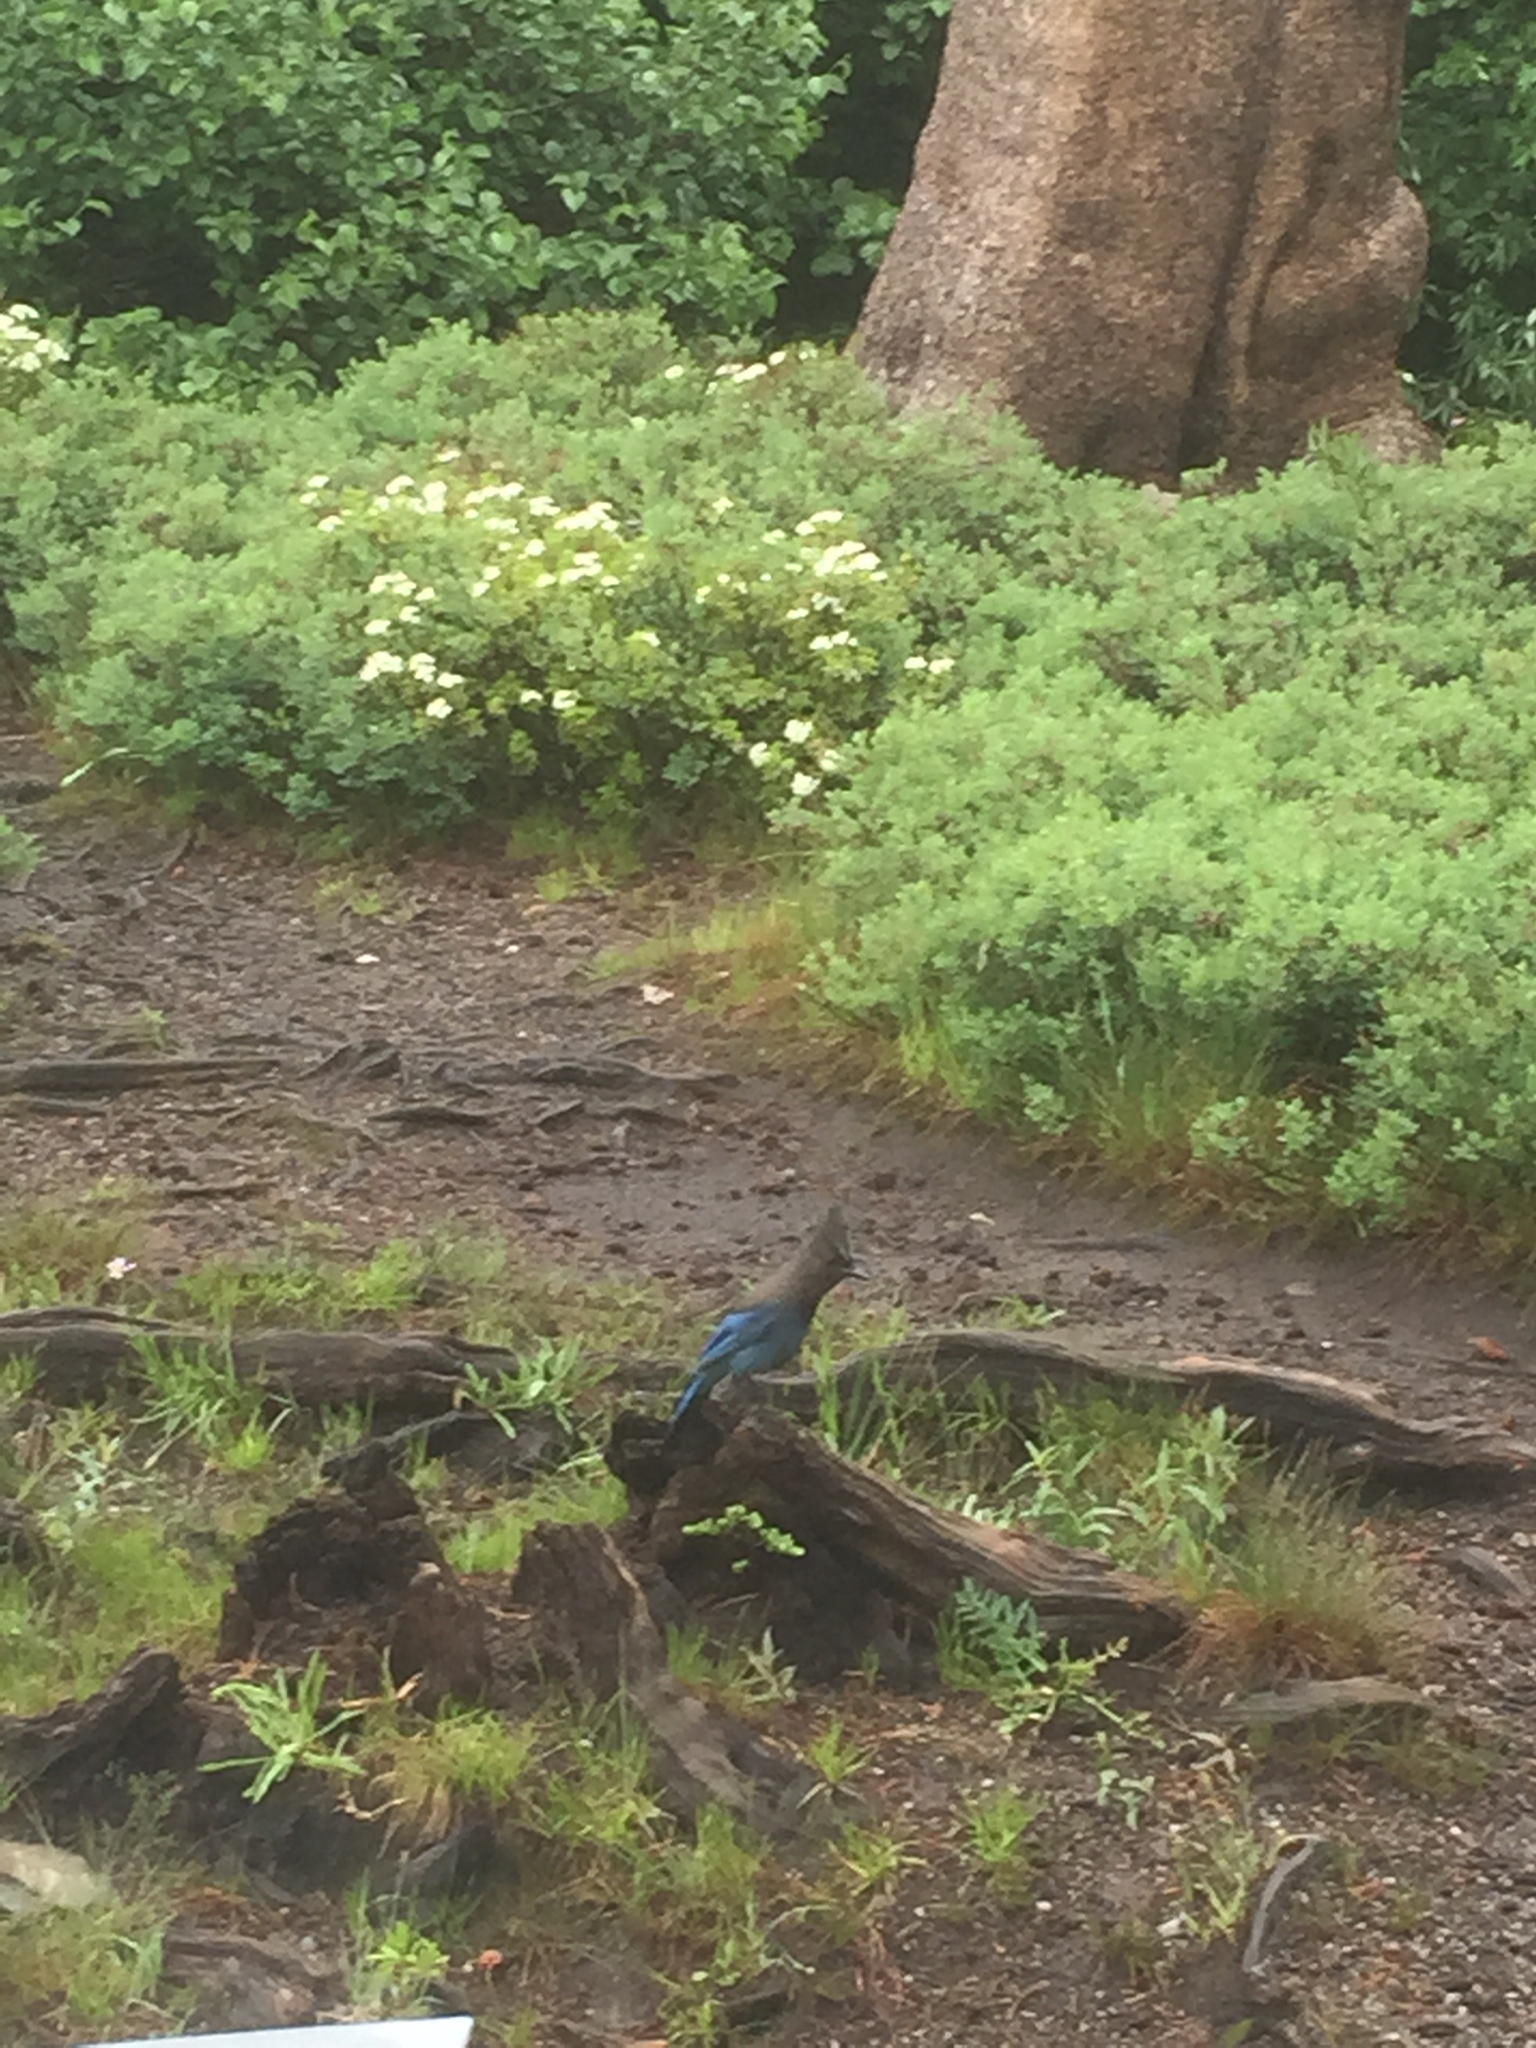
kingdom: Animalia
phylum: Chordata
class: Aves
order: Passeriformes
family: Corvidae
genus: Cyanocitta
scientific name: Cyanocitta stelleri
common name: Steller's jay
